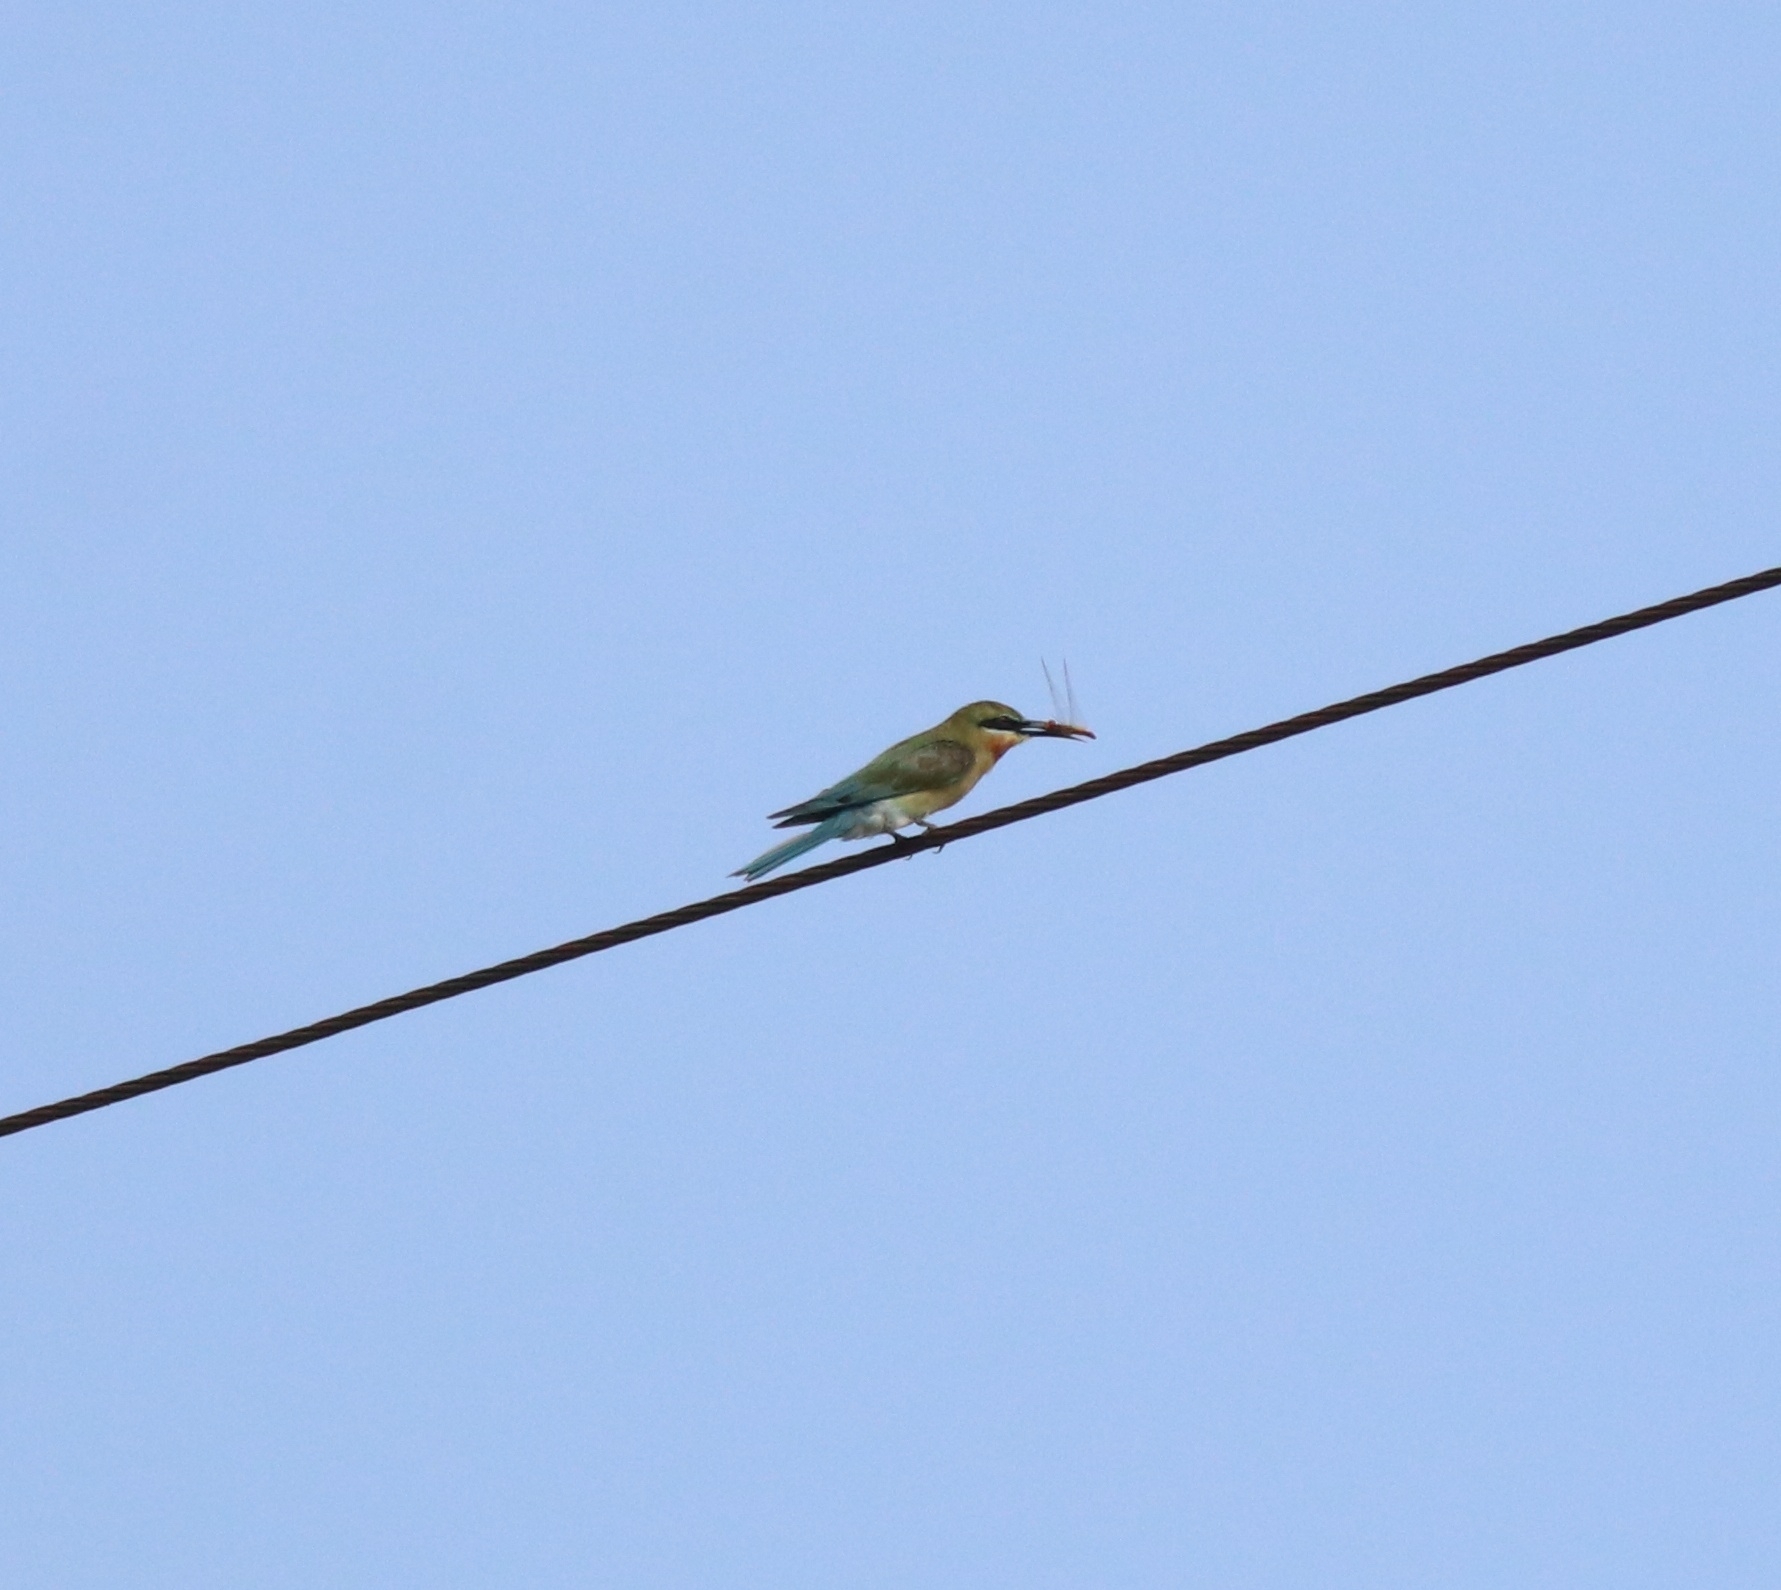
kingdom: Animalia
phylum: Chordata
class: Aves
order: Coraciiformes
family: Meropidae
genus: Merops
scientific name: Merops philippinus
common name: Blue-tailed bee-eater
